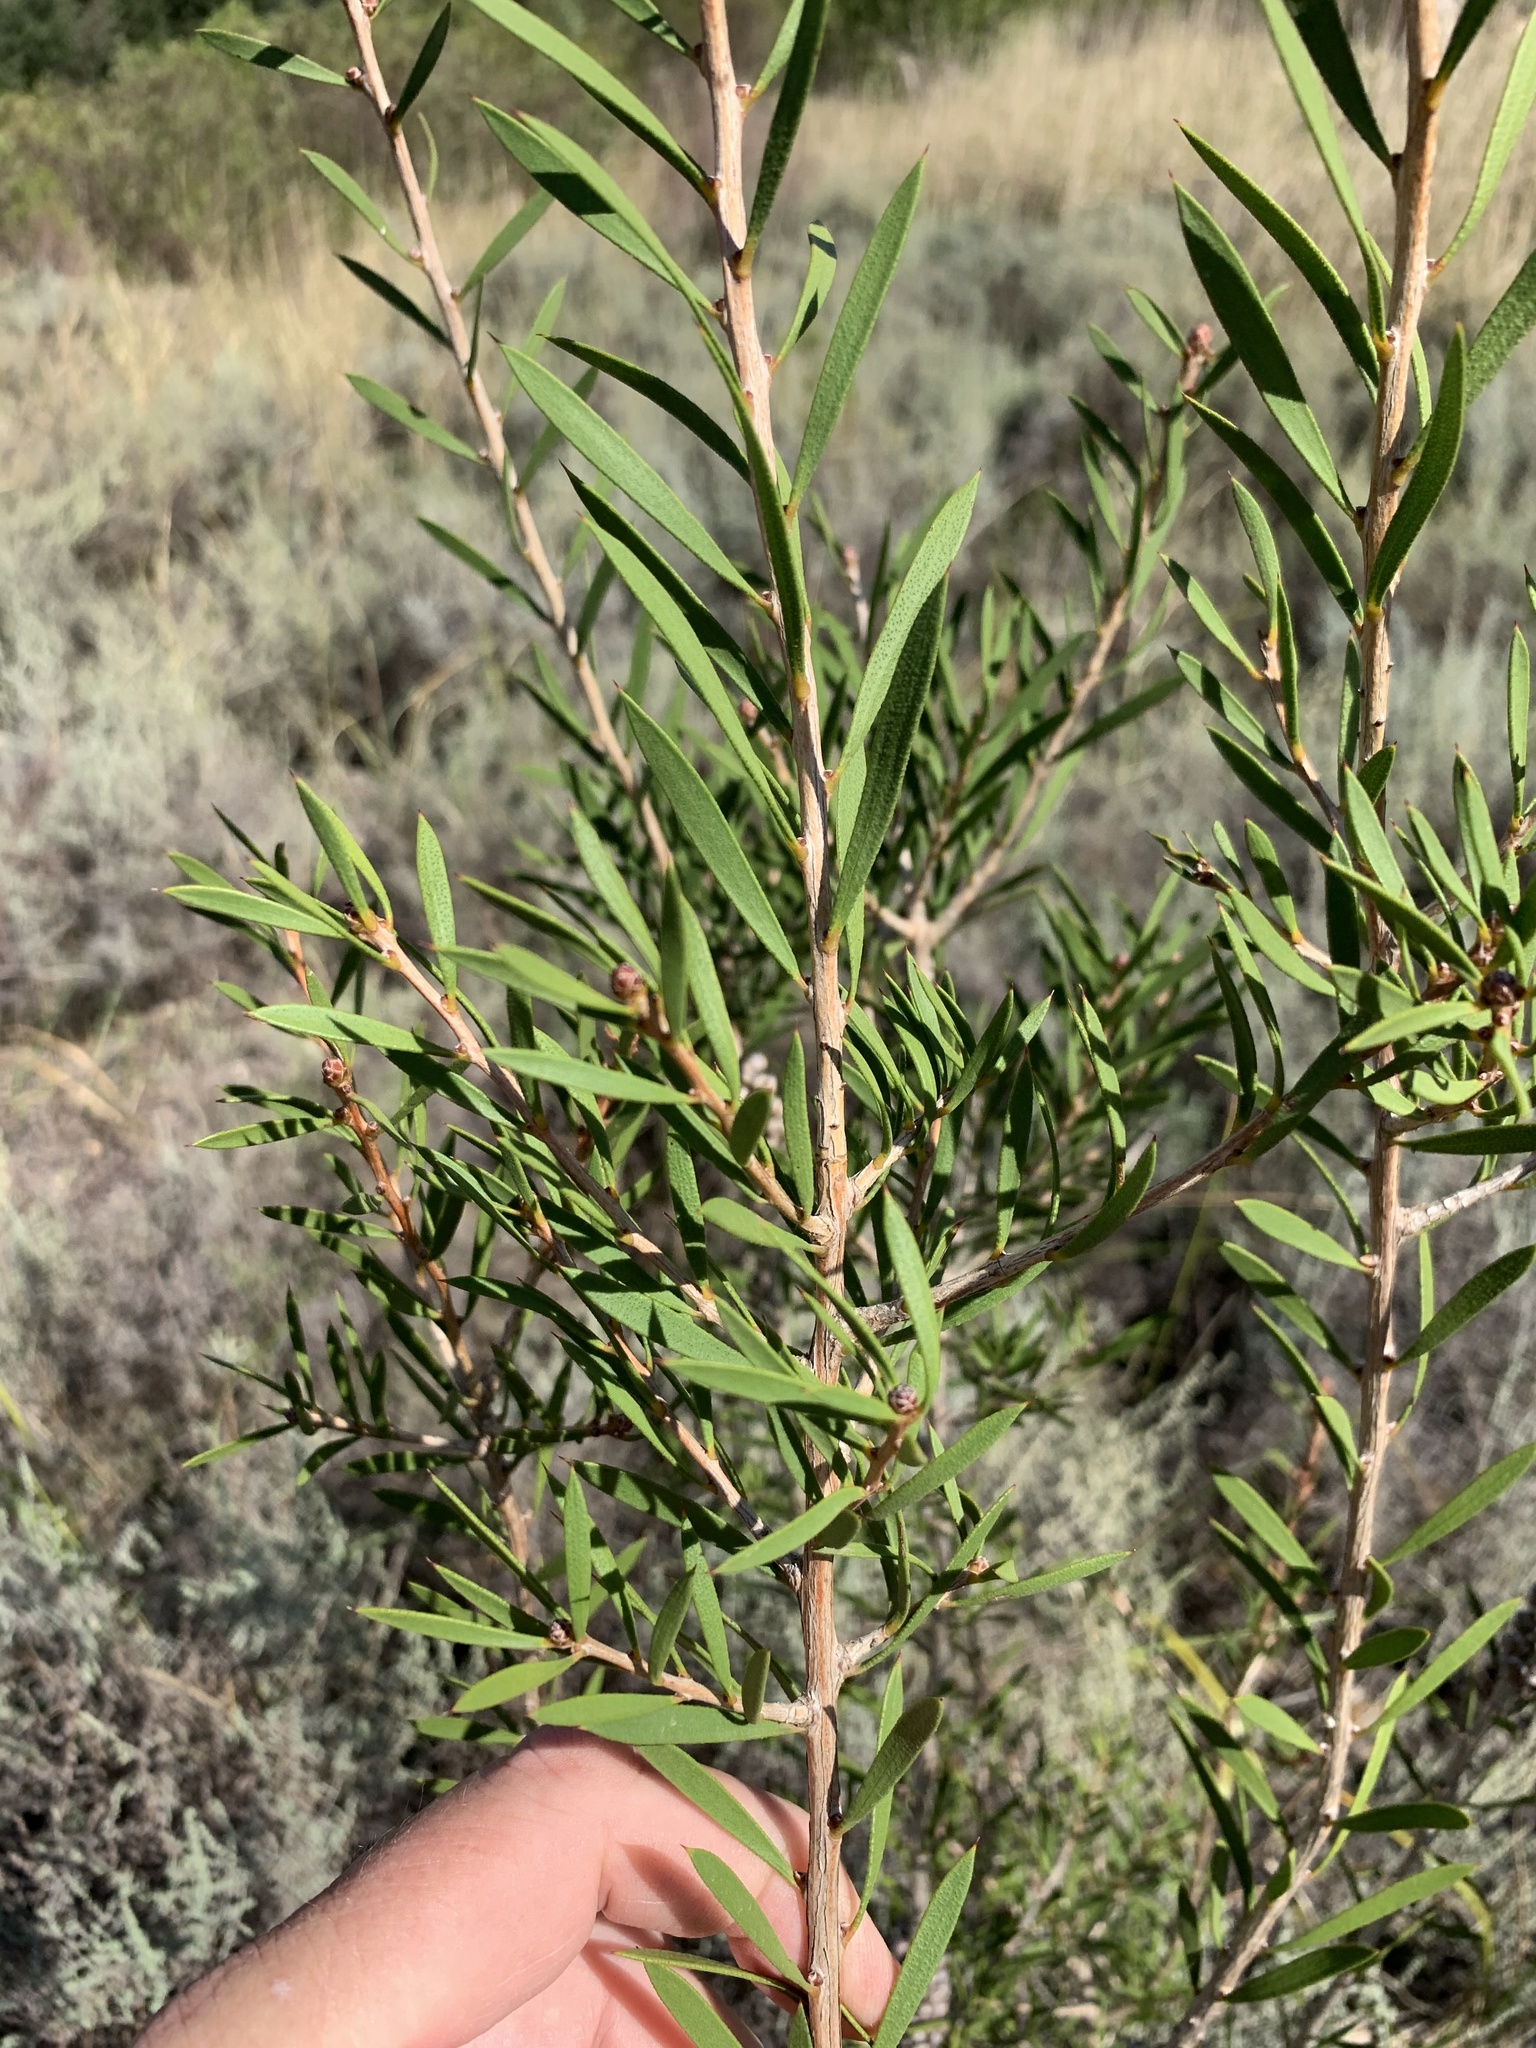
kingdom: Plantae
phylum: Tracheophyta
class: Magnoliopsida
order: Myrtales
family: Myrtaceae
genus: Callistemon
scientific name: Callistemon rugulosus
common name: Scarlet bottlebrush
